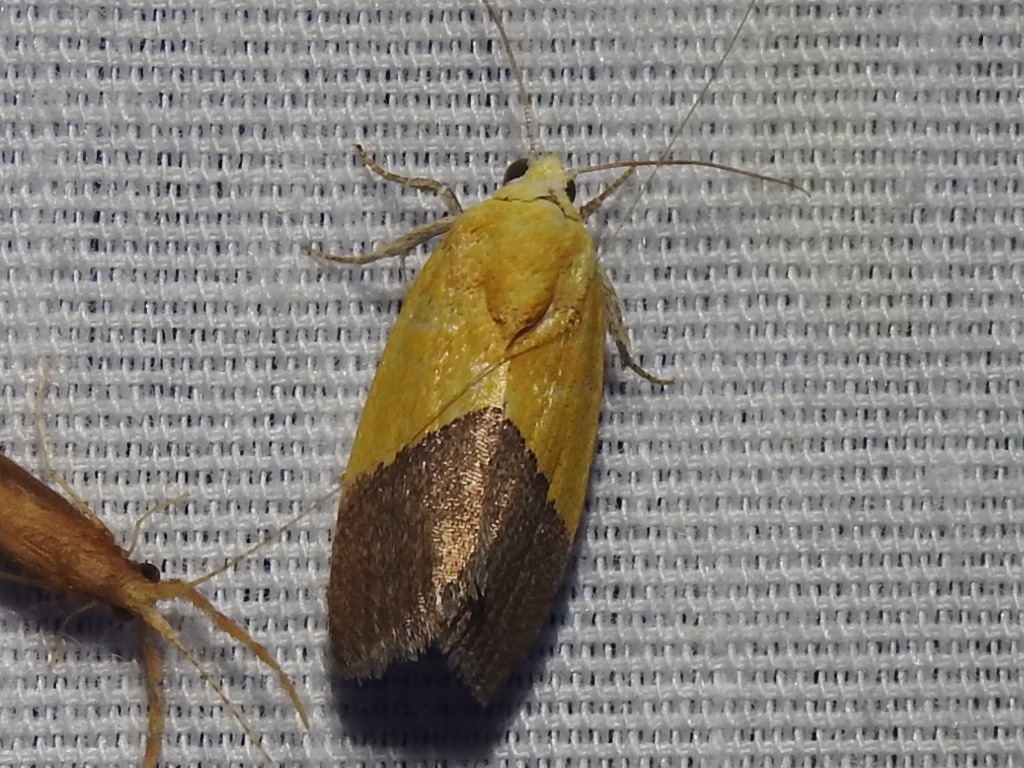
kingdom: Animalia
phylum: Arthropoda
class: Insecta
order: Lepidoptera
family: Noctuidae
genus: Acontia
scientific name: Acontia semiflava
